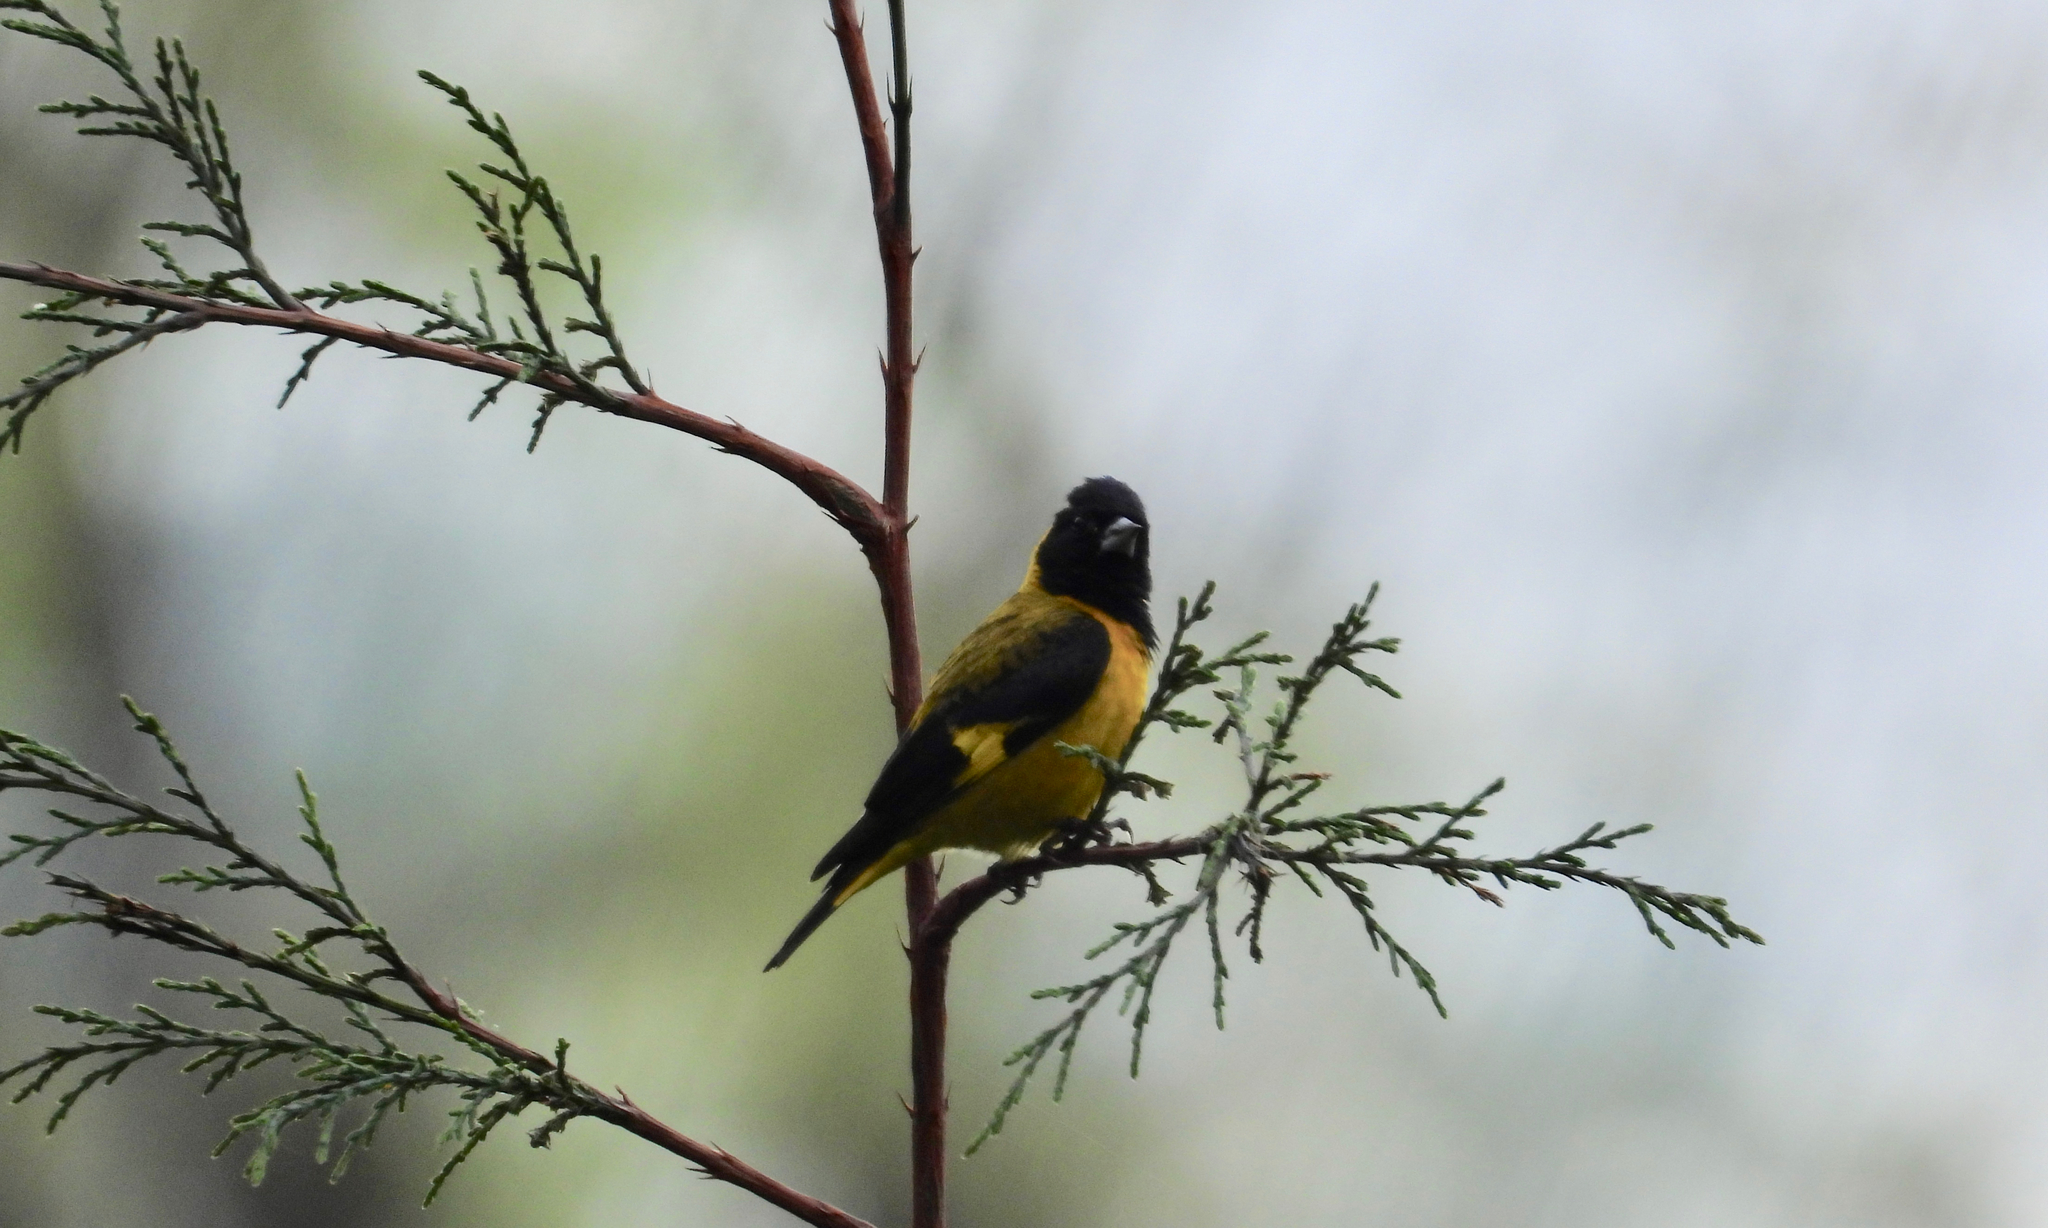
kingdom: Animalia
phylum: Chordata
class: Aves
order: Passeriformes
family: Fringillidae
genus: Spinus
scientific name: Spinus notatus
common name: Black-headed siskin
